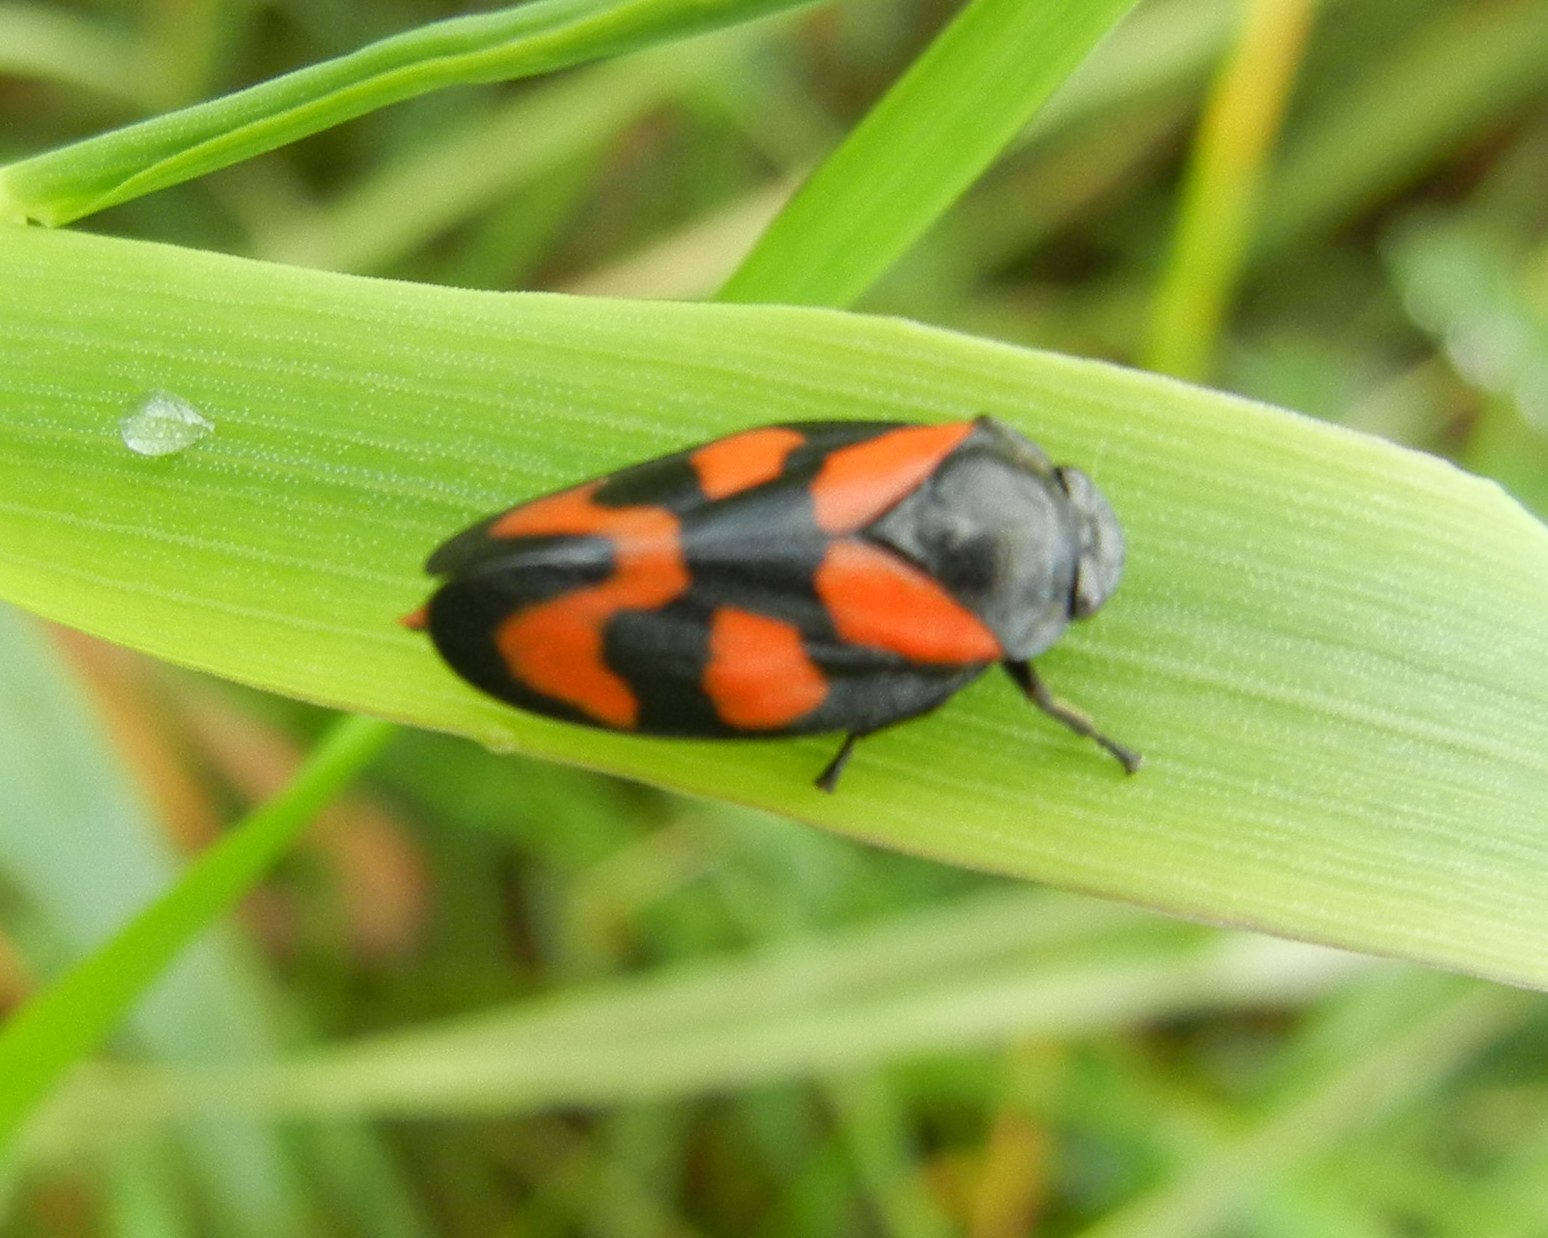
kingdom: Animalia
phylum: Arthropoda
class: Insecta
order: Hemiptera
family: Cercopidae
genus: Cercopis
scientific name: Cercopis vulnerata
